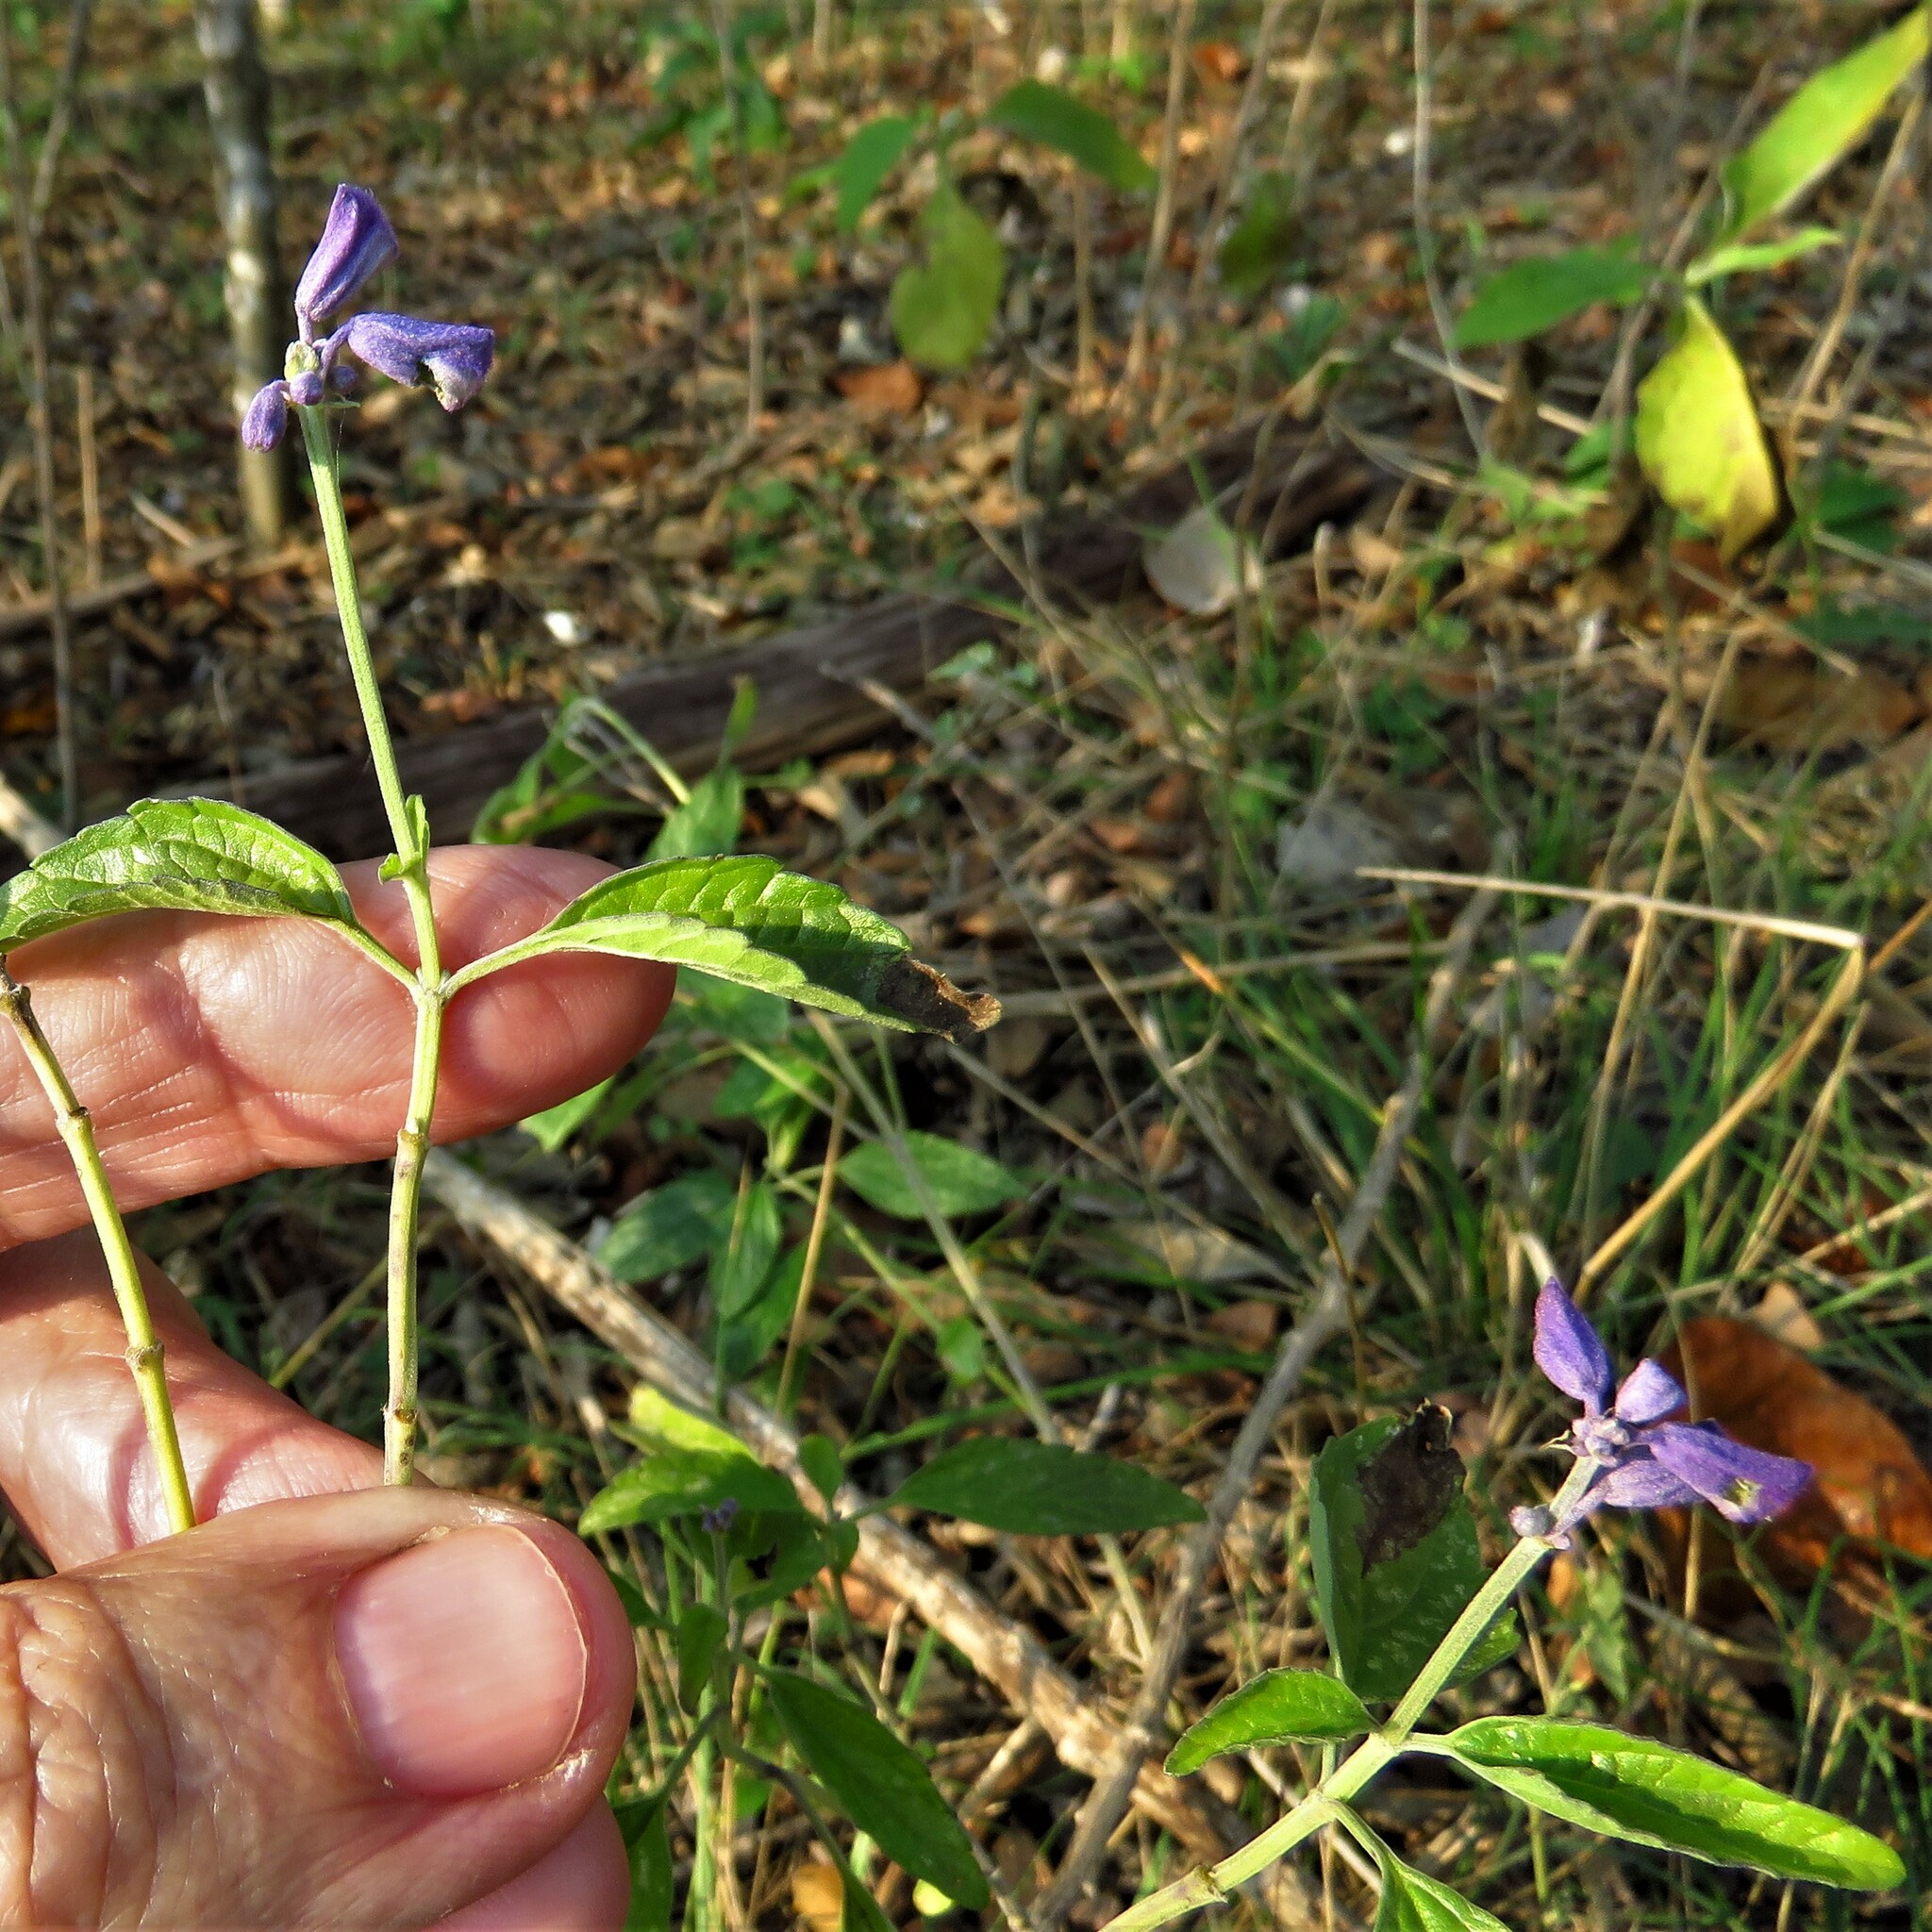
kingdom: Plantae
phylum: Tracheophyta
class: Magnoliopsida
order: Lamiales
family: Lamiaceae
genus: Salvia
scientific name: Salvia farinacea
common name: Mealy sage
